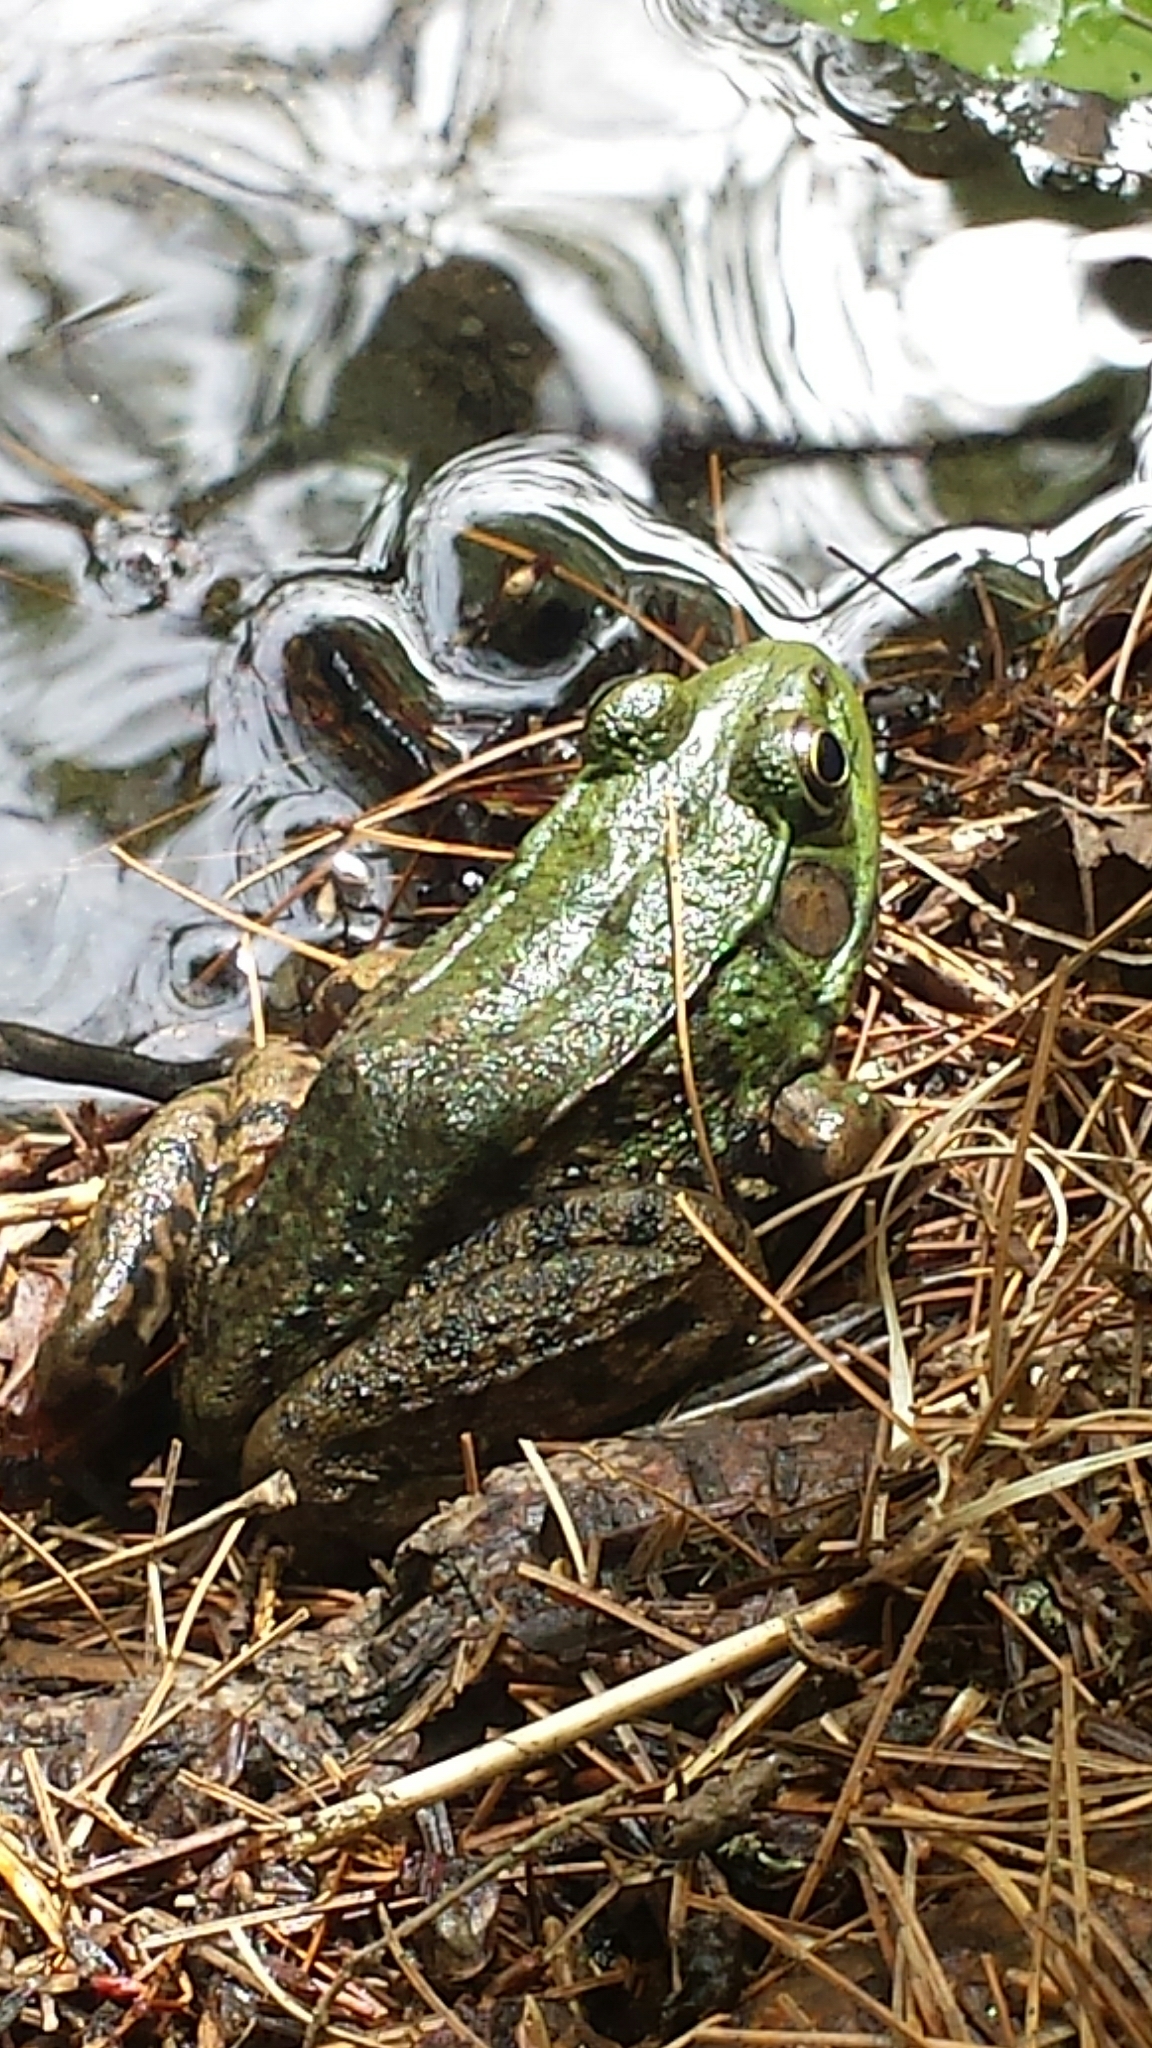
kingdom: Animalia
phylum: Chordata
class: Amphibia
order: Anura
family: Ranidae
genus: Lithobates
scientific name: Lithobates clamitans
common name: Green frog
